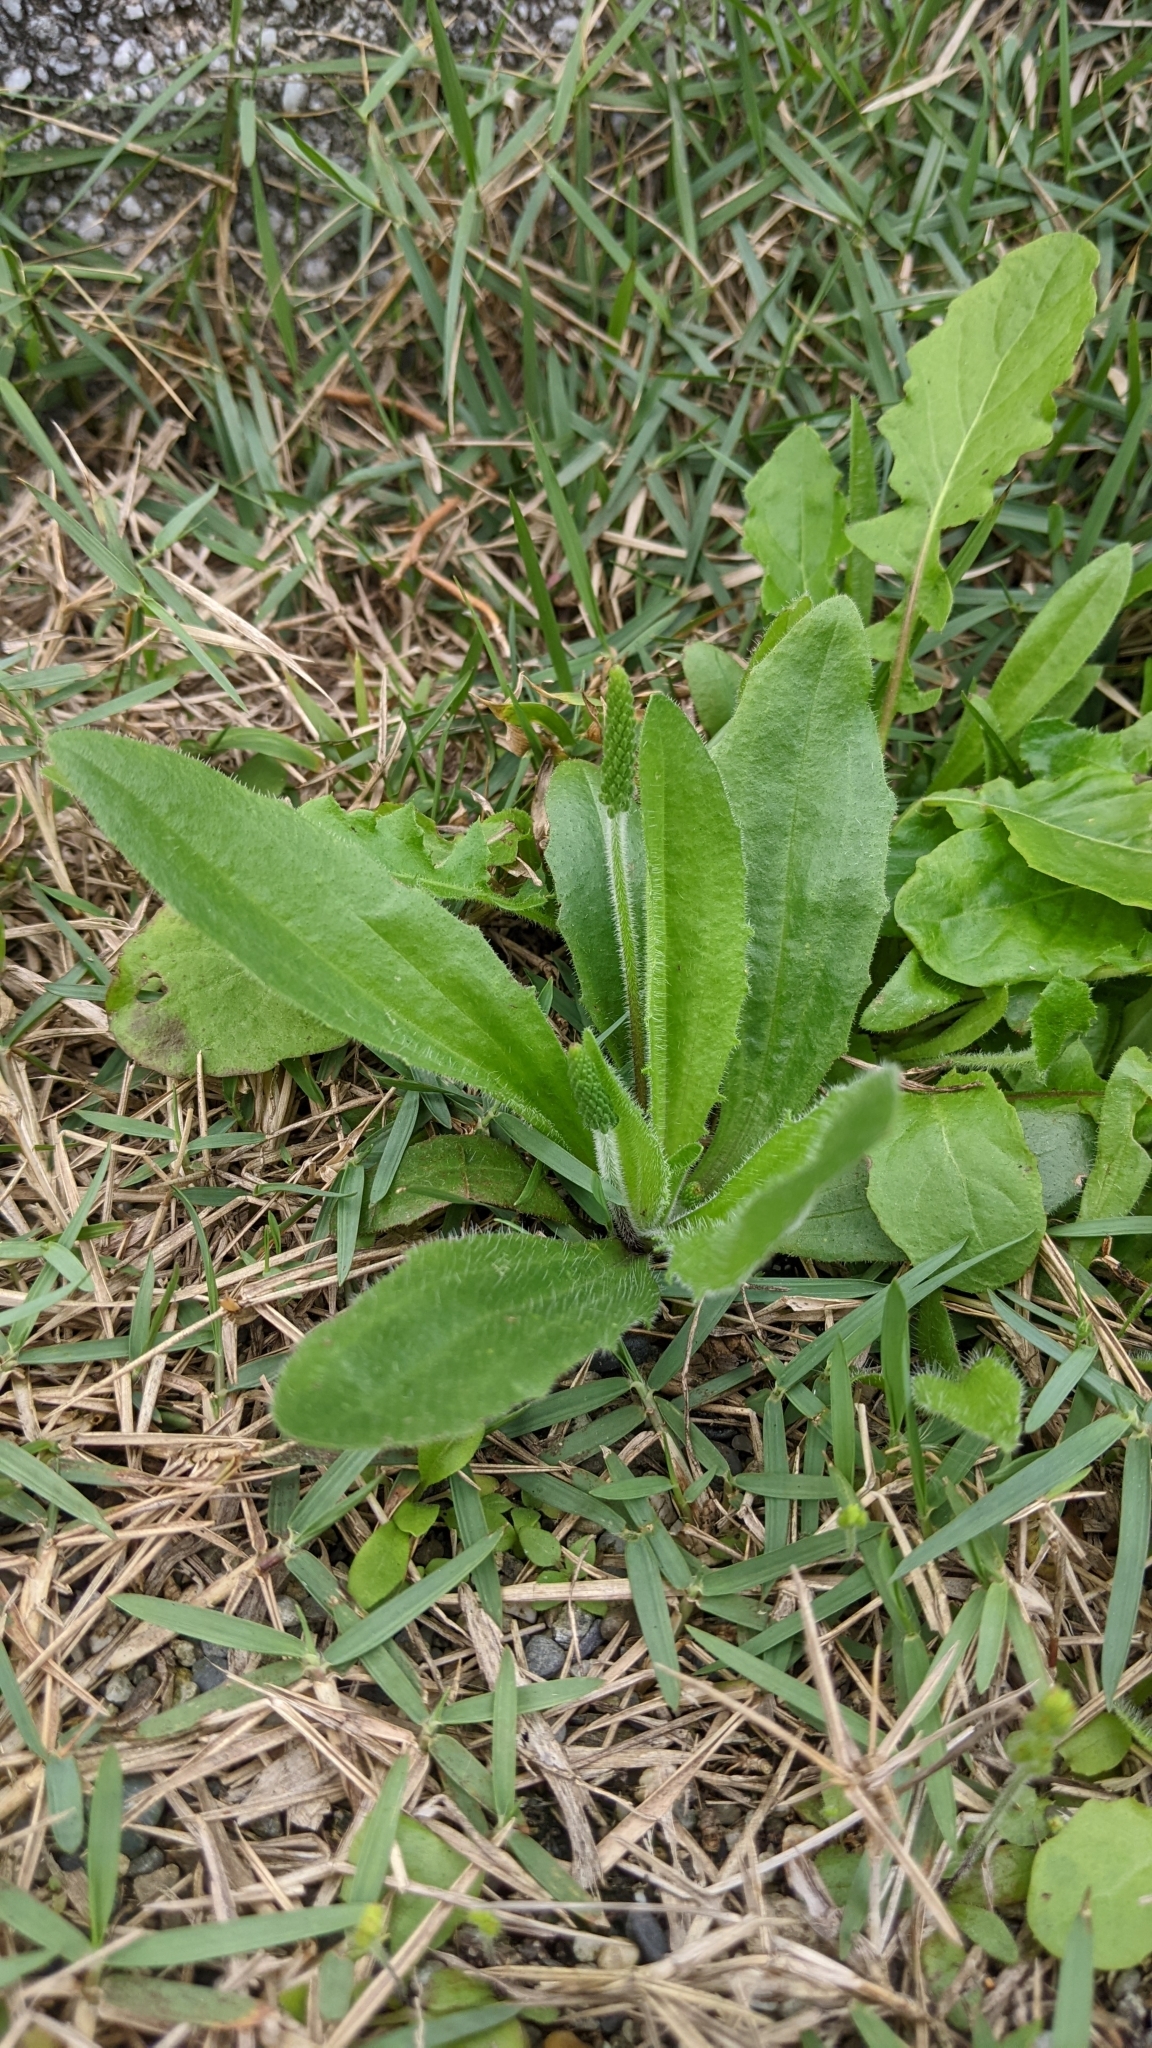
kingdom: Plantae
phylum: Tracheophyta
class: Magnoliopsida
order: Lamiales
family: Plantaginaceae
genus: Plantago
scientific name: Plantago virginica
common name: Hoary plantain
